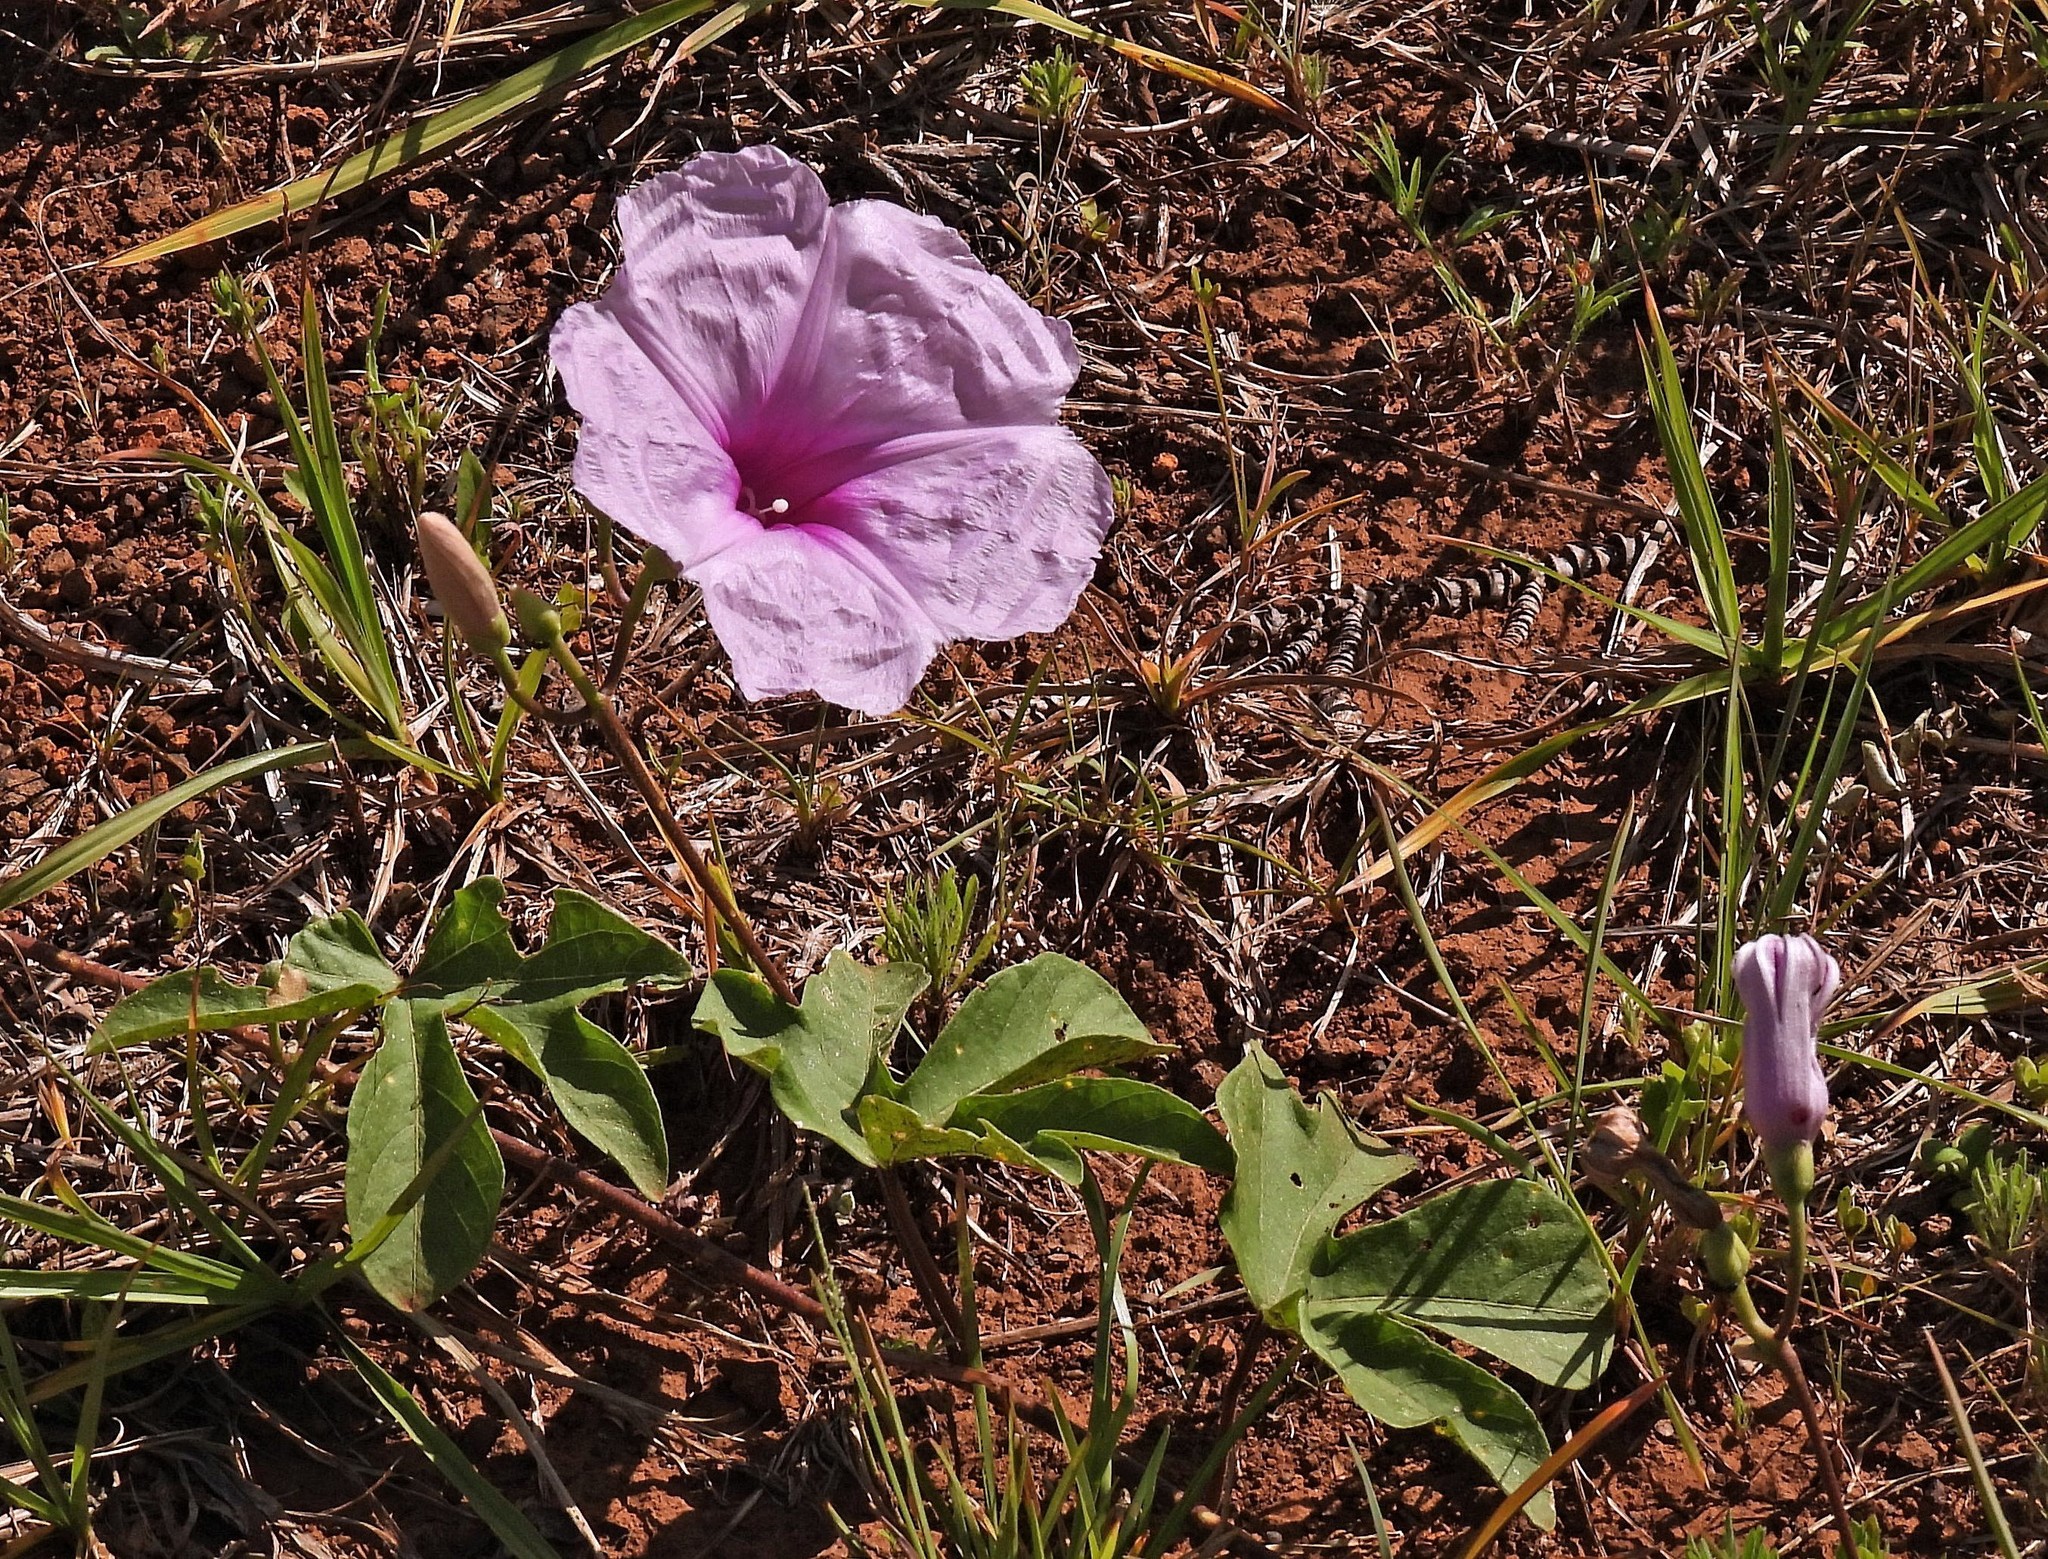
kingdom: Plantae
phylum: Tracheophyta
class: Magnoliopsida
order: Solanales
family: Convolvulaceae
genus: Ipomoea
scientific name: Ipomoea bonariensis
